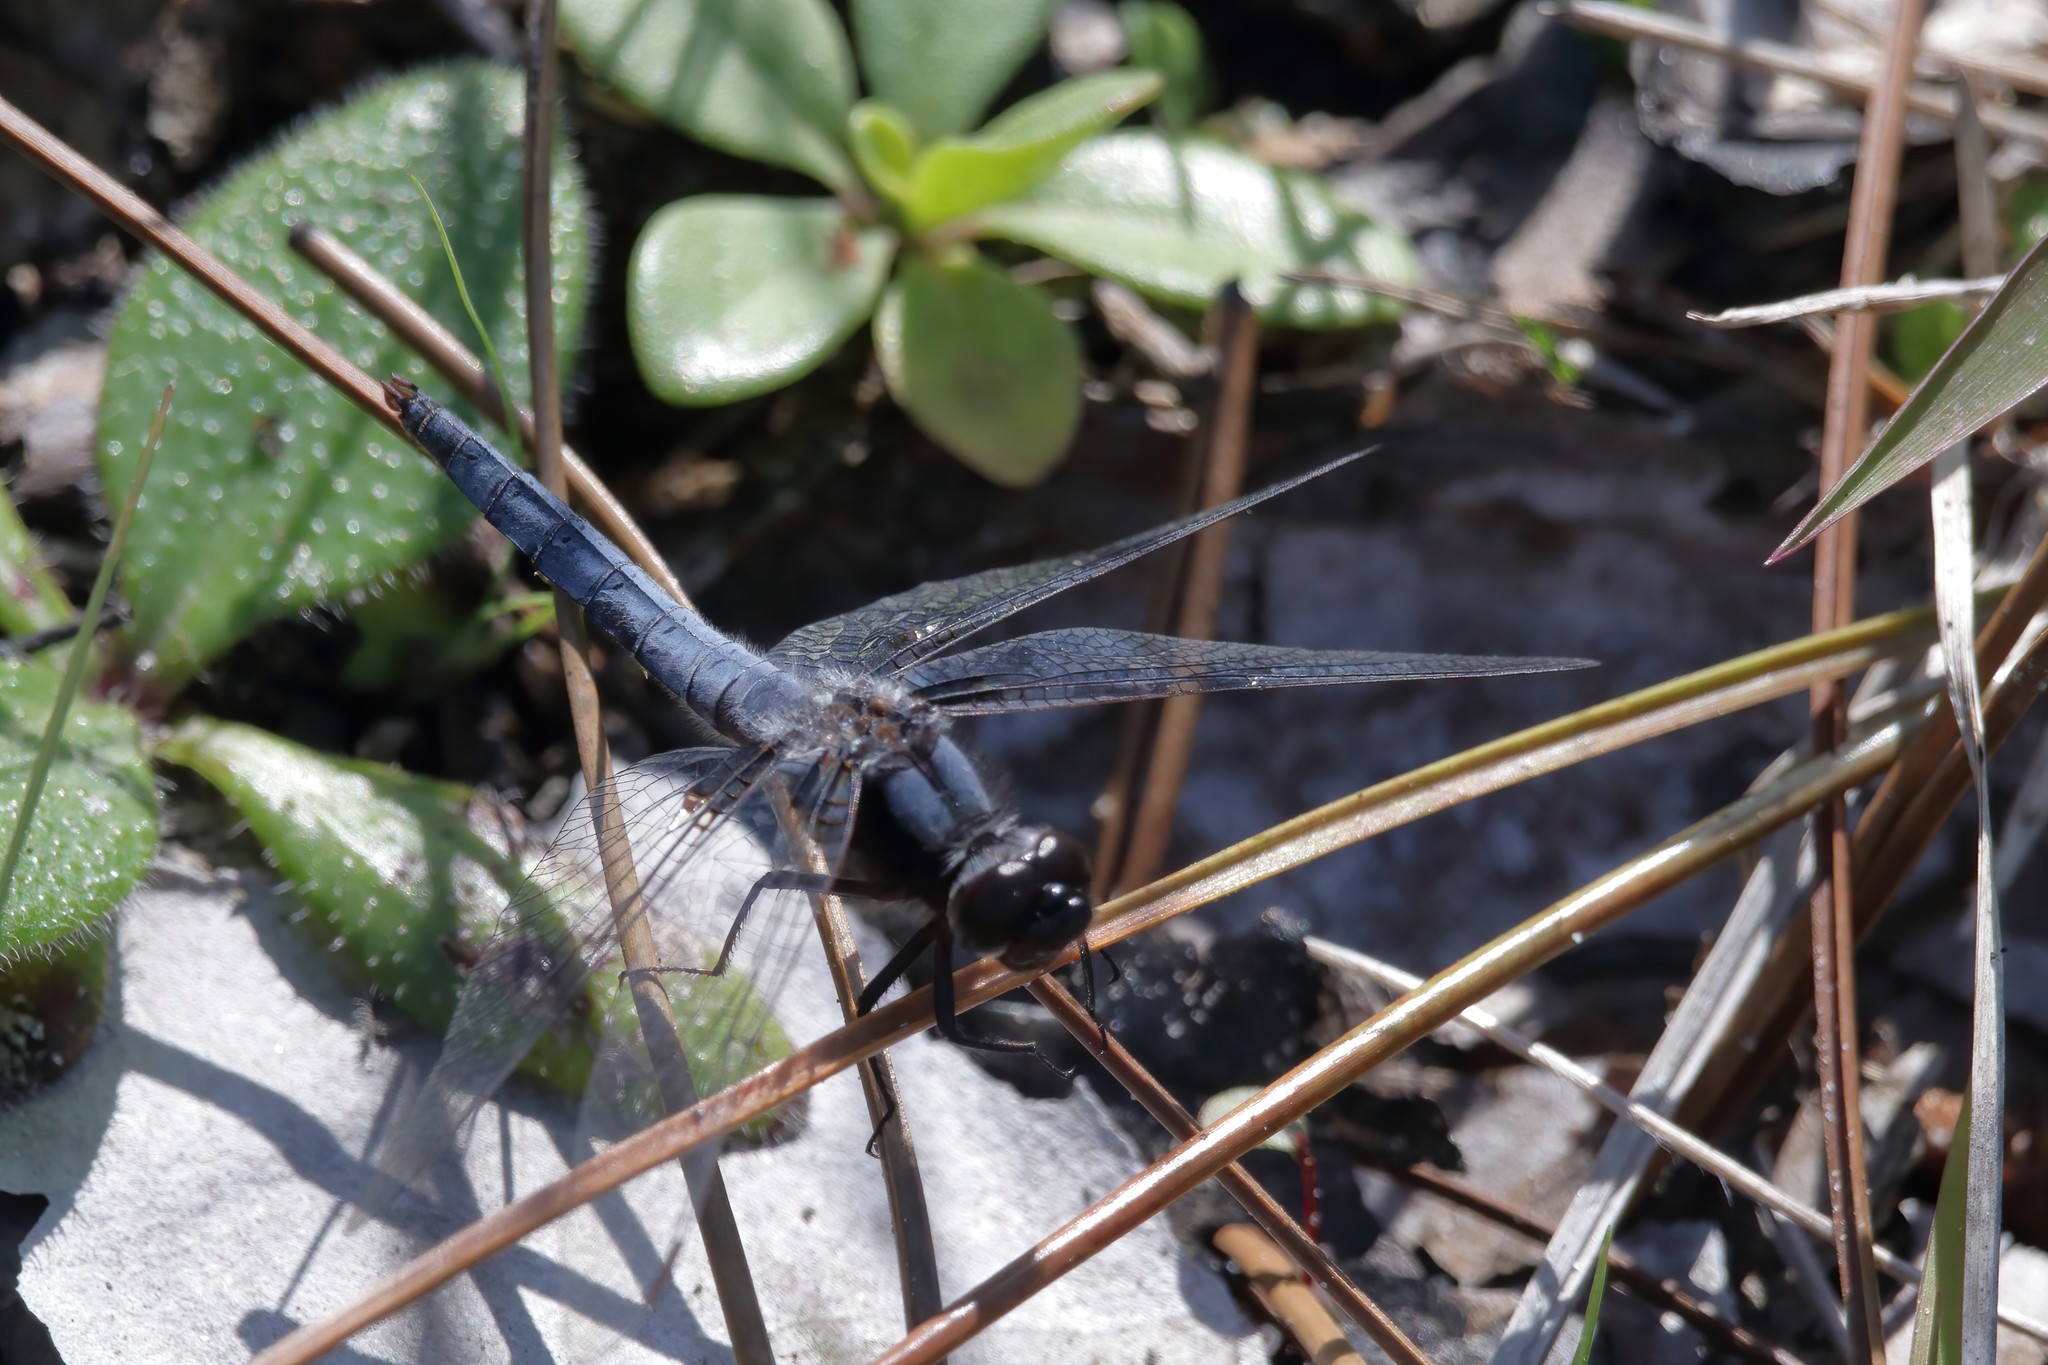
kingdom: Animalia
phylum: Arthropoda
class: Insecta
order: Odonata
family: Libellulidae
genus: Ladona
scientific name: Ladona deplanata
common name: Blue corporal
